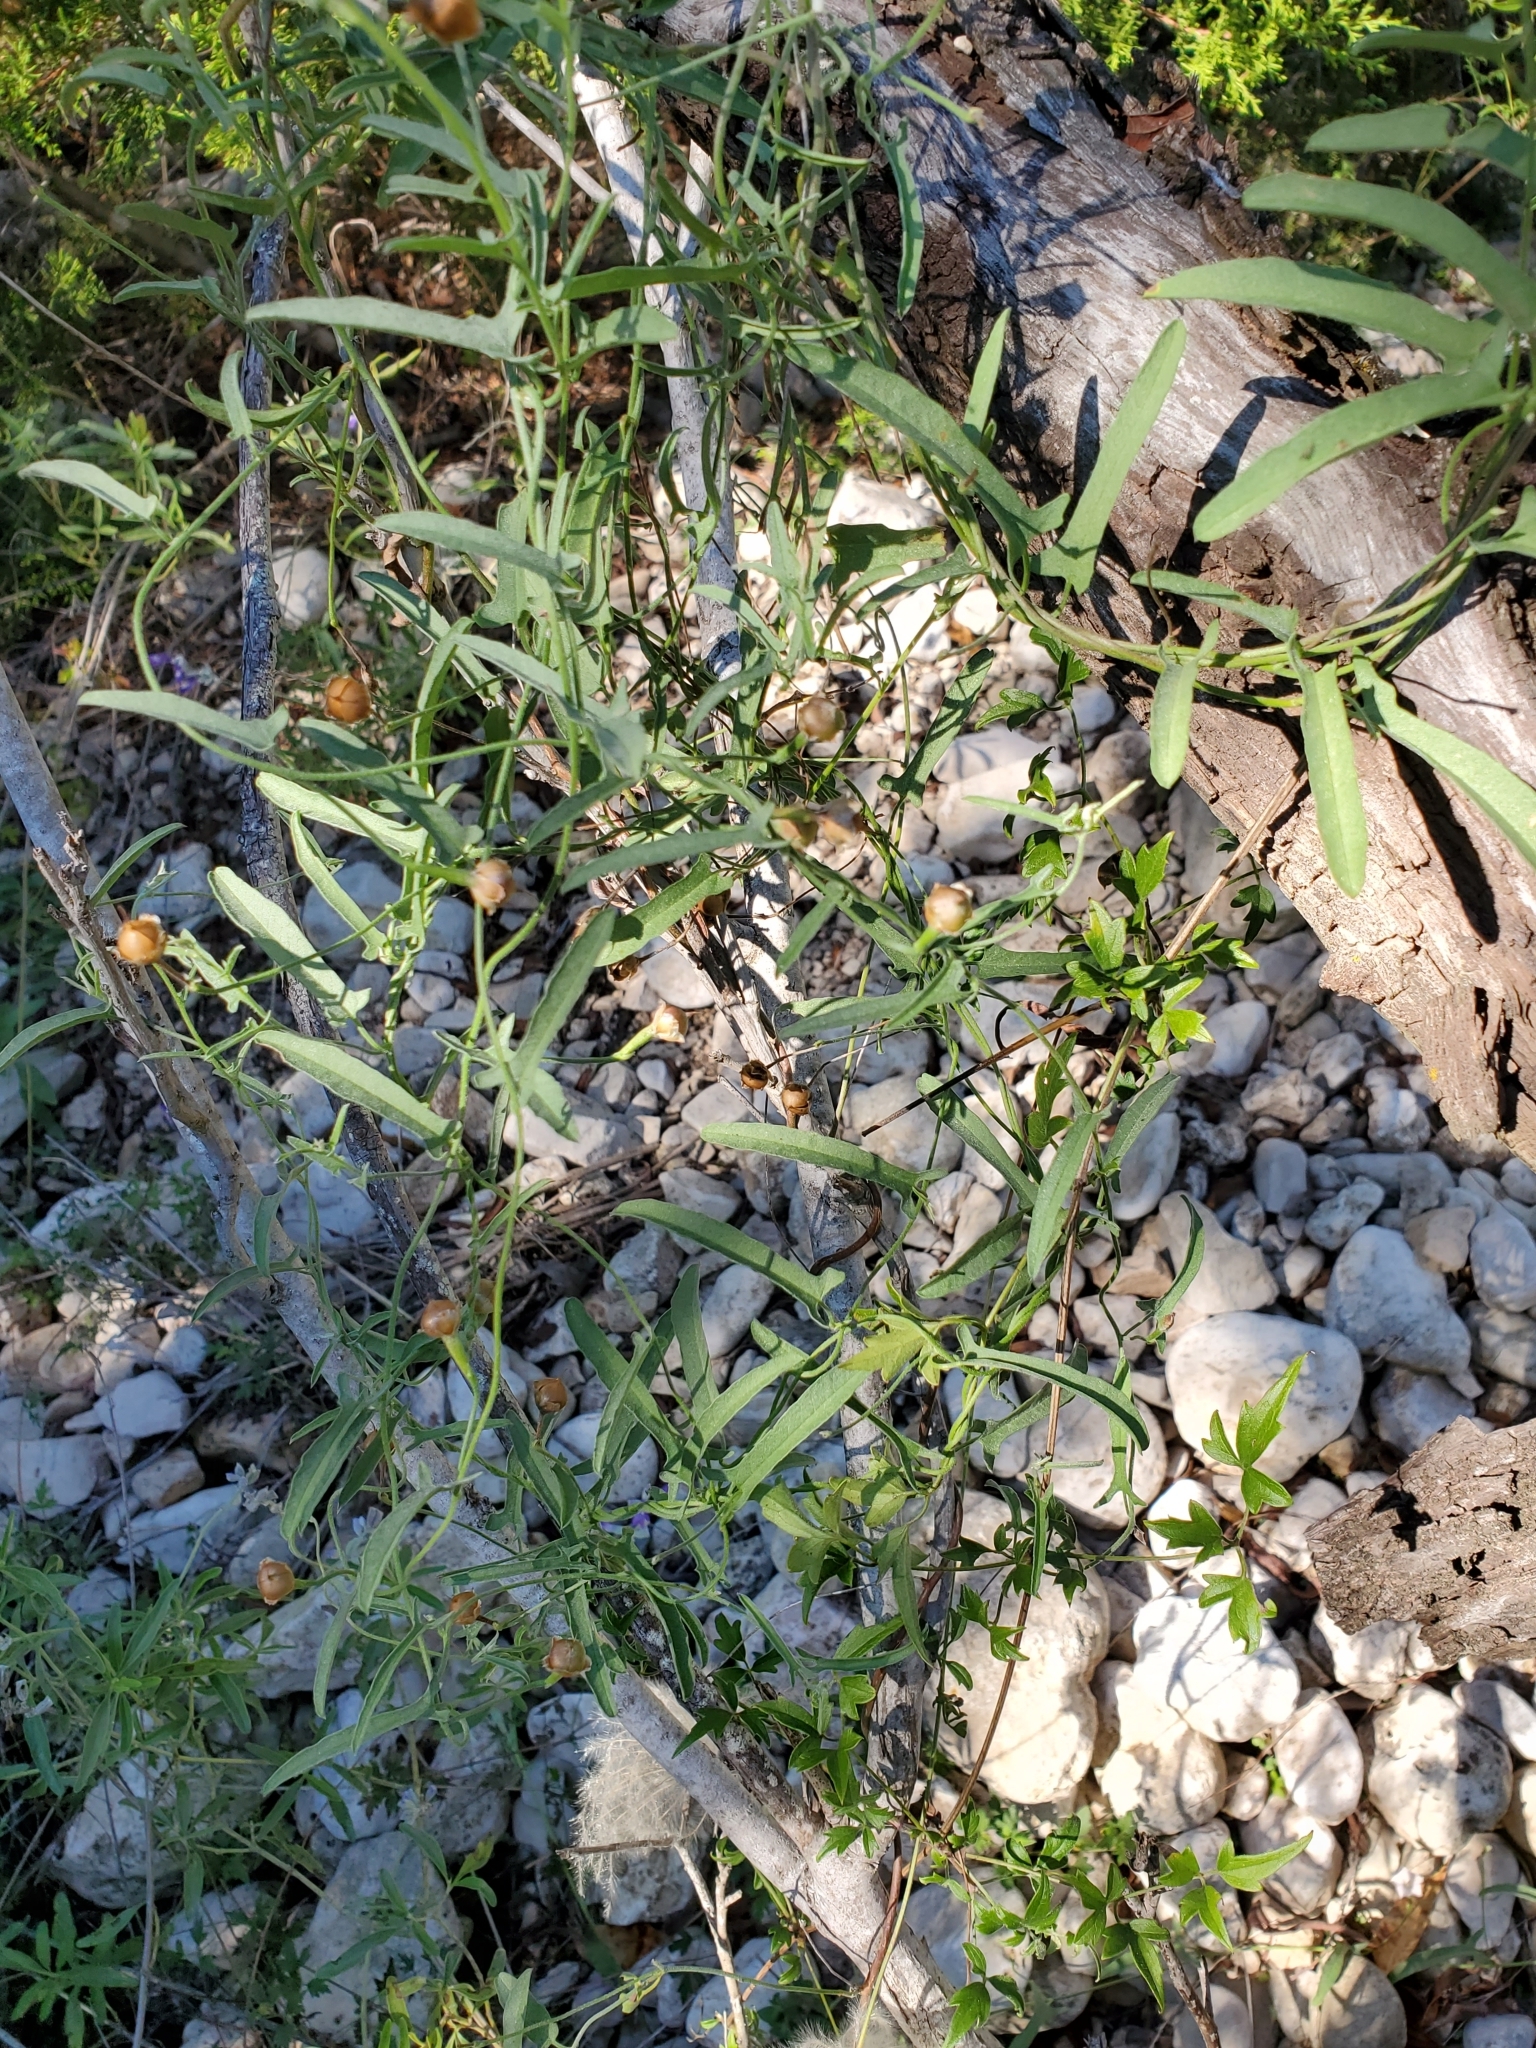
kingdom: Plantae
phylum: Tracheophyta
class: Magnoliopsida
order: Solanales
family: Convolvulaceae
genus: Convolvulus
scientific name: Convolvulus equitans
